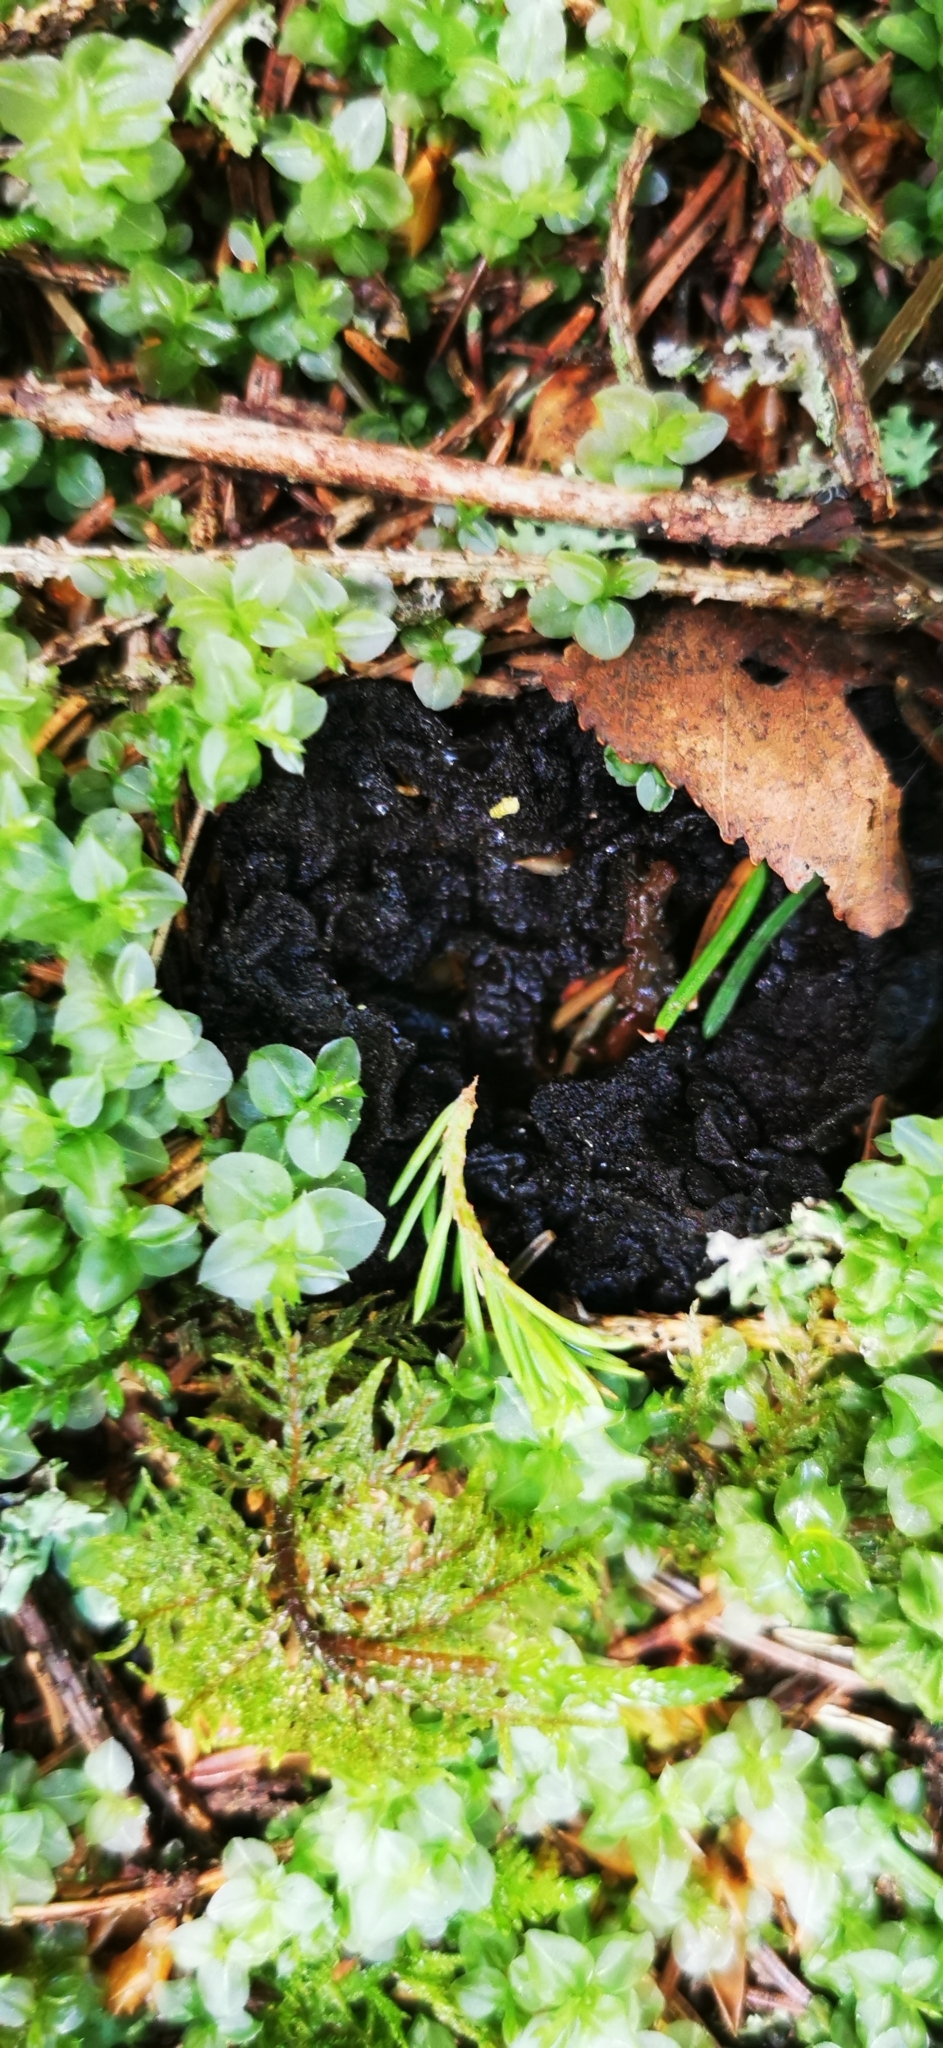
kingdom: Fungi
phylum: Ascomycota
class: Pezizomycetes
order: Pezizales
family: Sarcosomataceae
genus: Sarcosoma
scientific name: Sarcosoma globosum
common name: Charred-pancake cup
